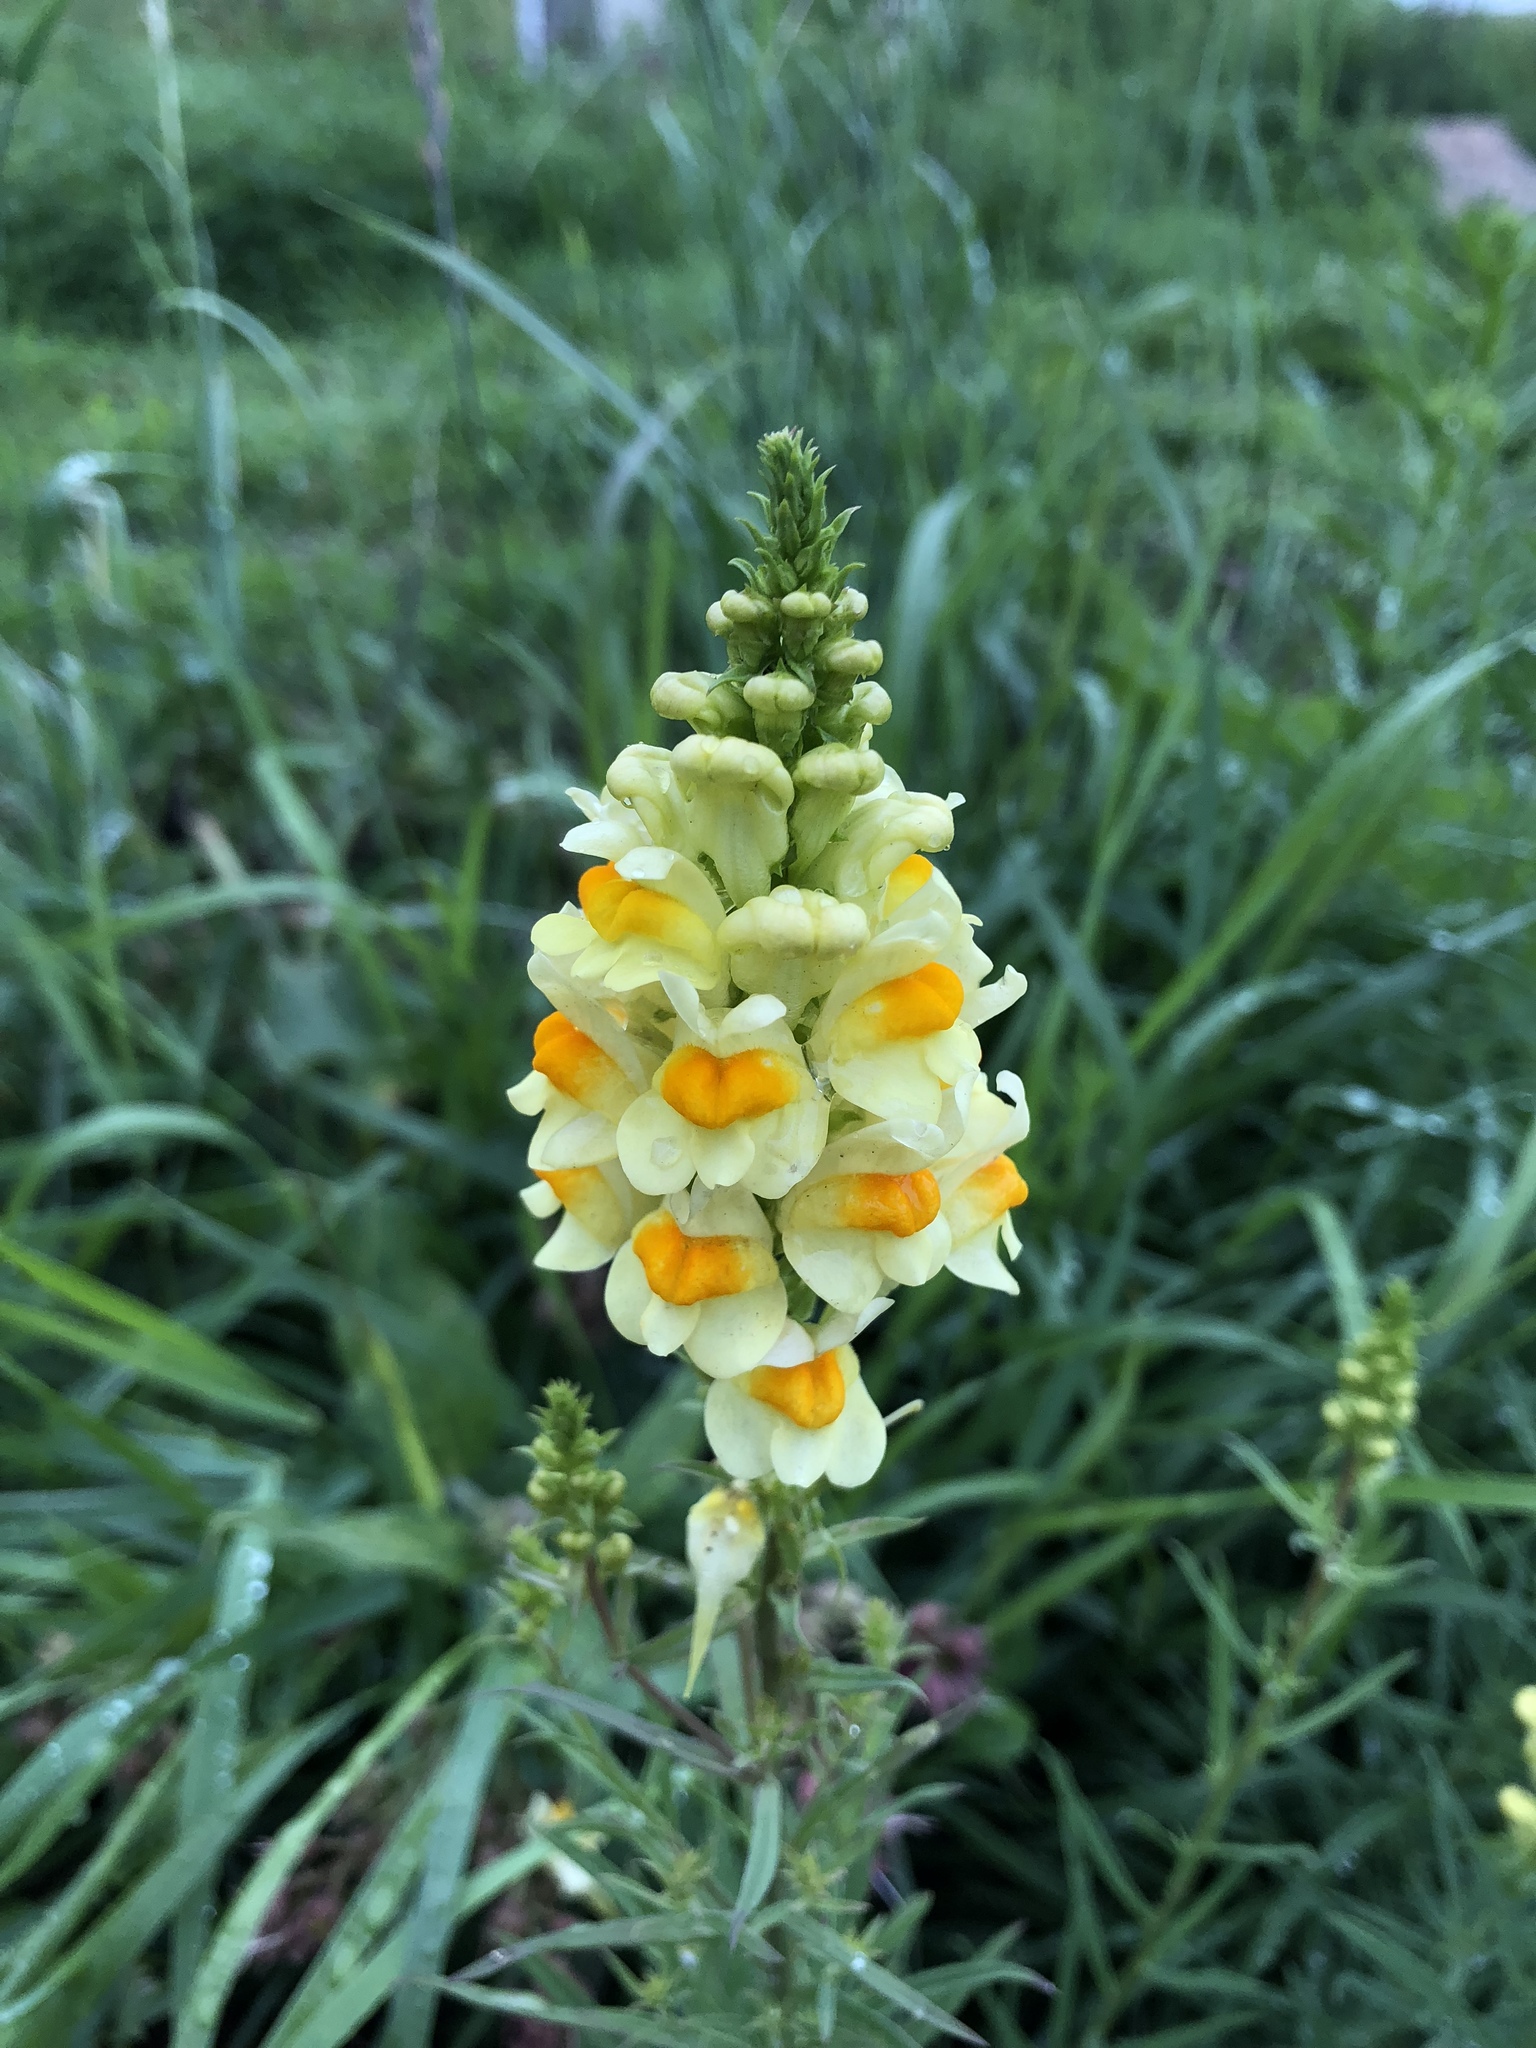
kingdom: Plantae
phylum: Tracheophyta
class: Magnoliopsida
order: Lamiales
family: Plantaginaceae
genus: Linaria
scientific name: Linaria vulgaris
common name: Butter and eggs
